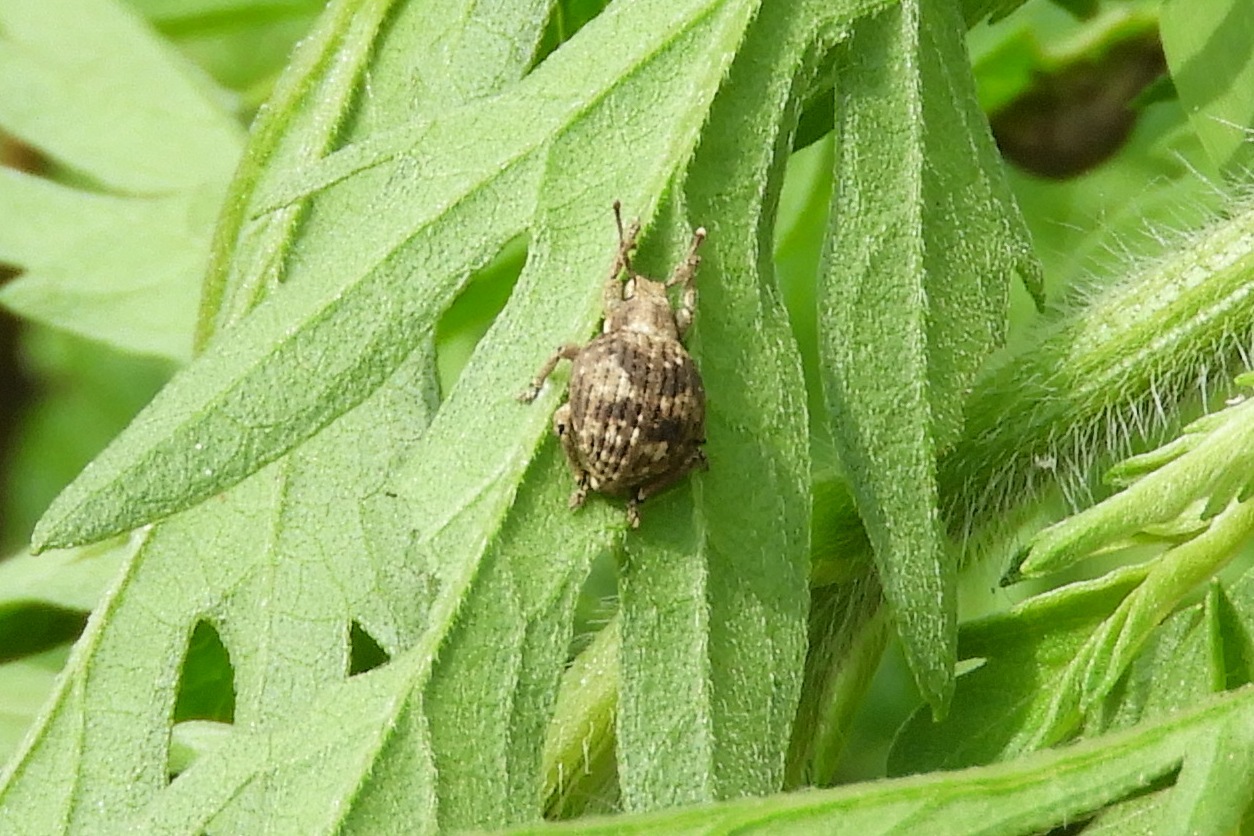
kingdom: Animalia
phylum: Arthropoda
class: Insecta
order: Coleoptera
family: Curculionidae
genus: Pseudocneorhinus
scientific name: Pseudocneorhinus bifasciatus
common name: Two-banded japanese weevil
